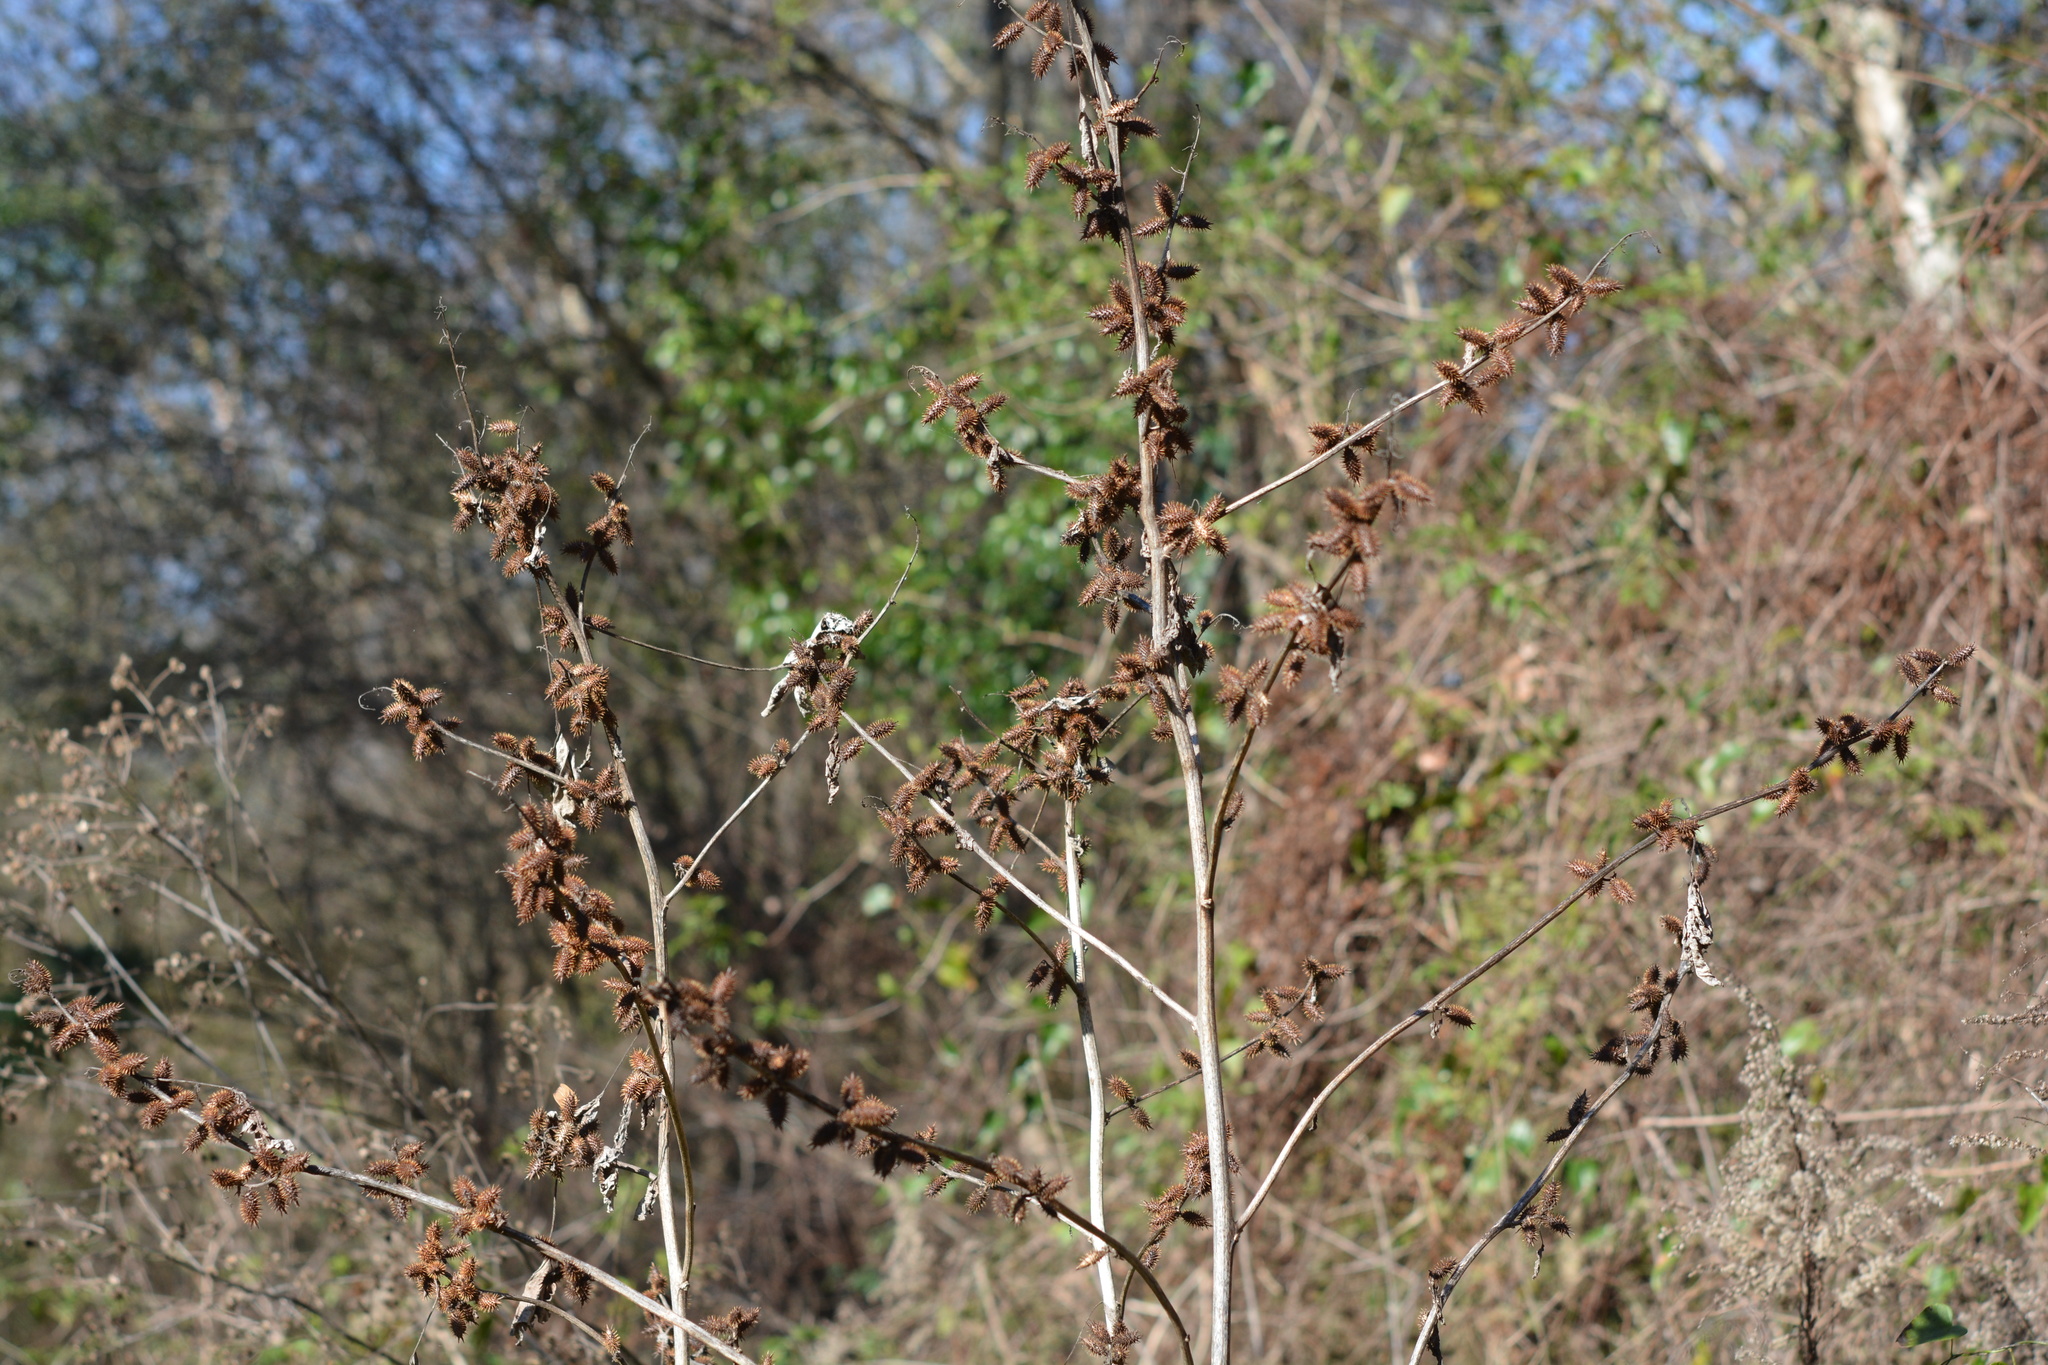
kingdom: Plantae
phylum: Tracheophyta
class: Magnoliopsida
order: Asterales
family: Asteraceae
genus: Xanthium
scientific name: Xanthium strumarium
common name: Rough cocklebur
